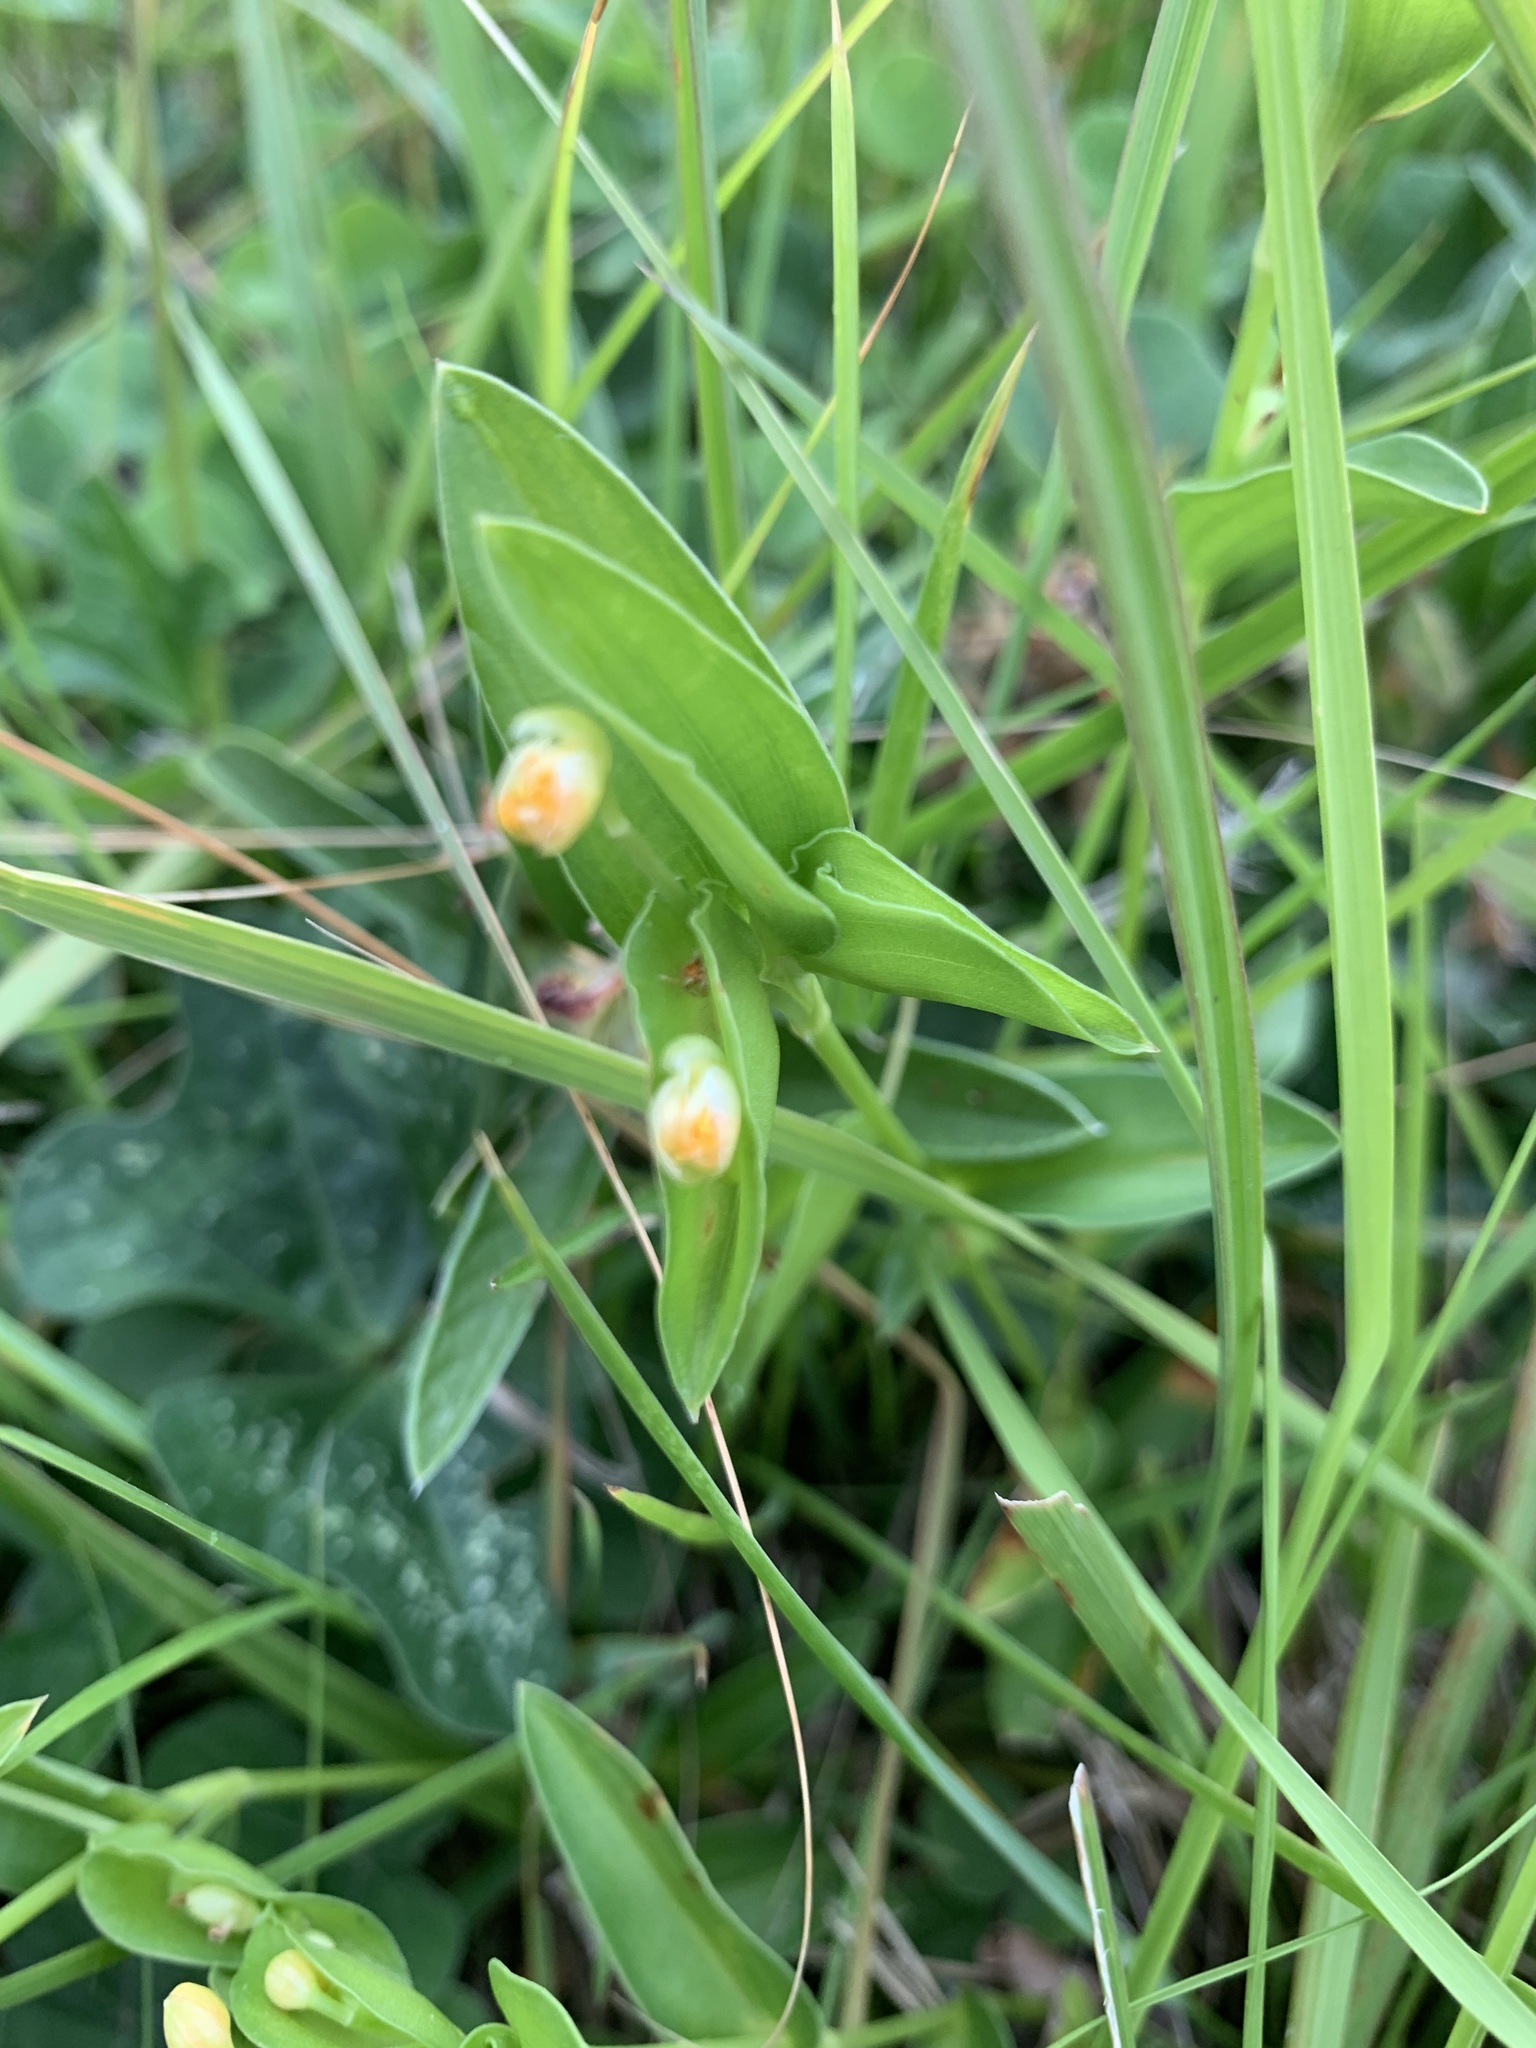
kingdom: Plantae
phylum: Tracheophyta
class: Liliopsida
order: Commelinales
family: Commelinaceae
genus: Commelina
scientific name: Commelina africana
